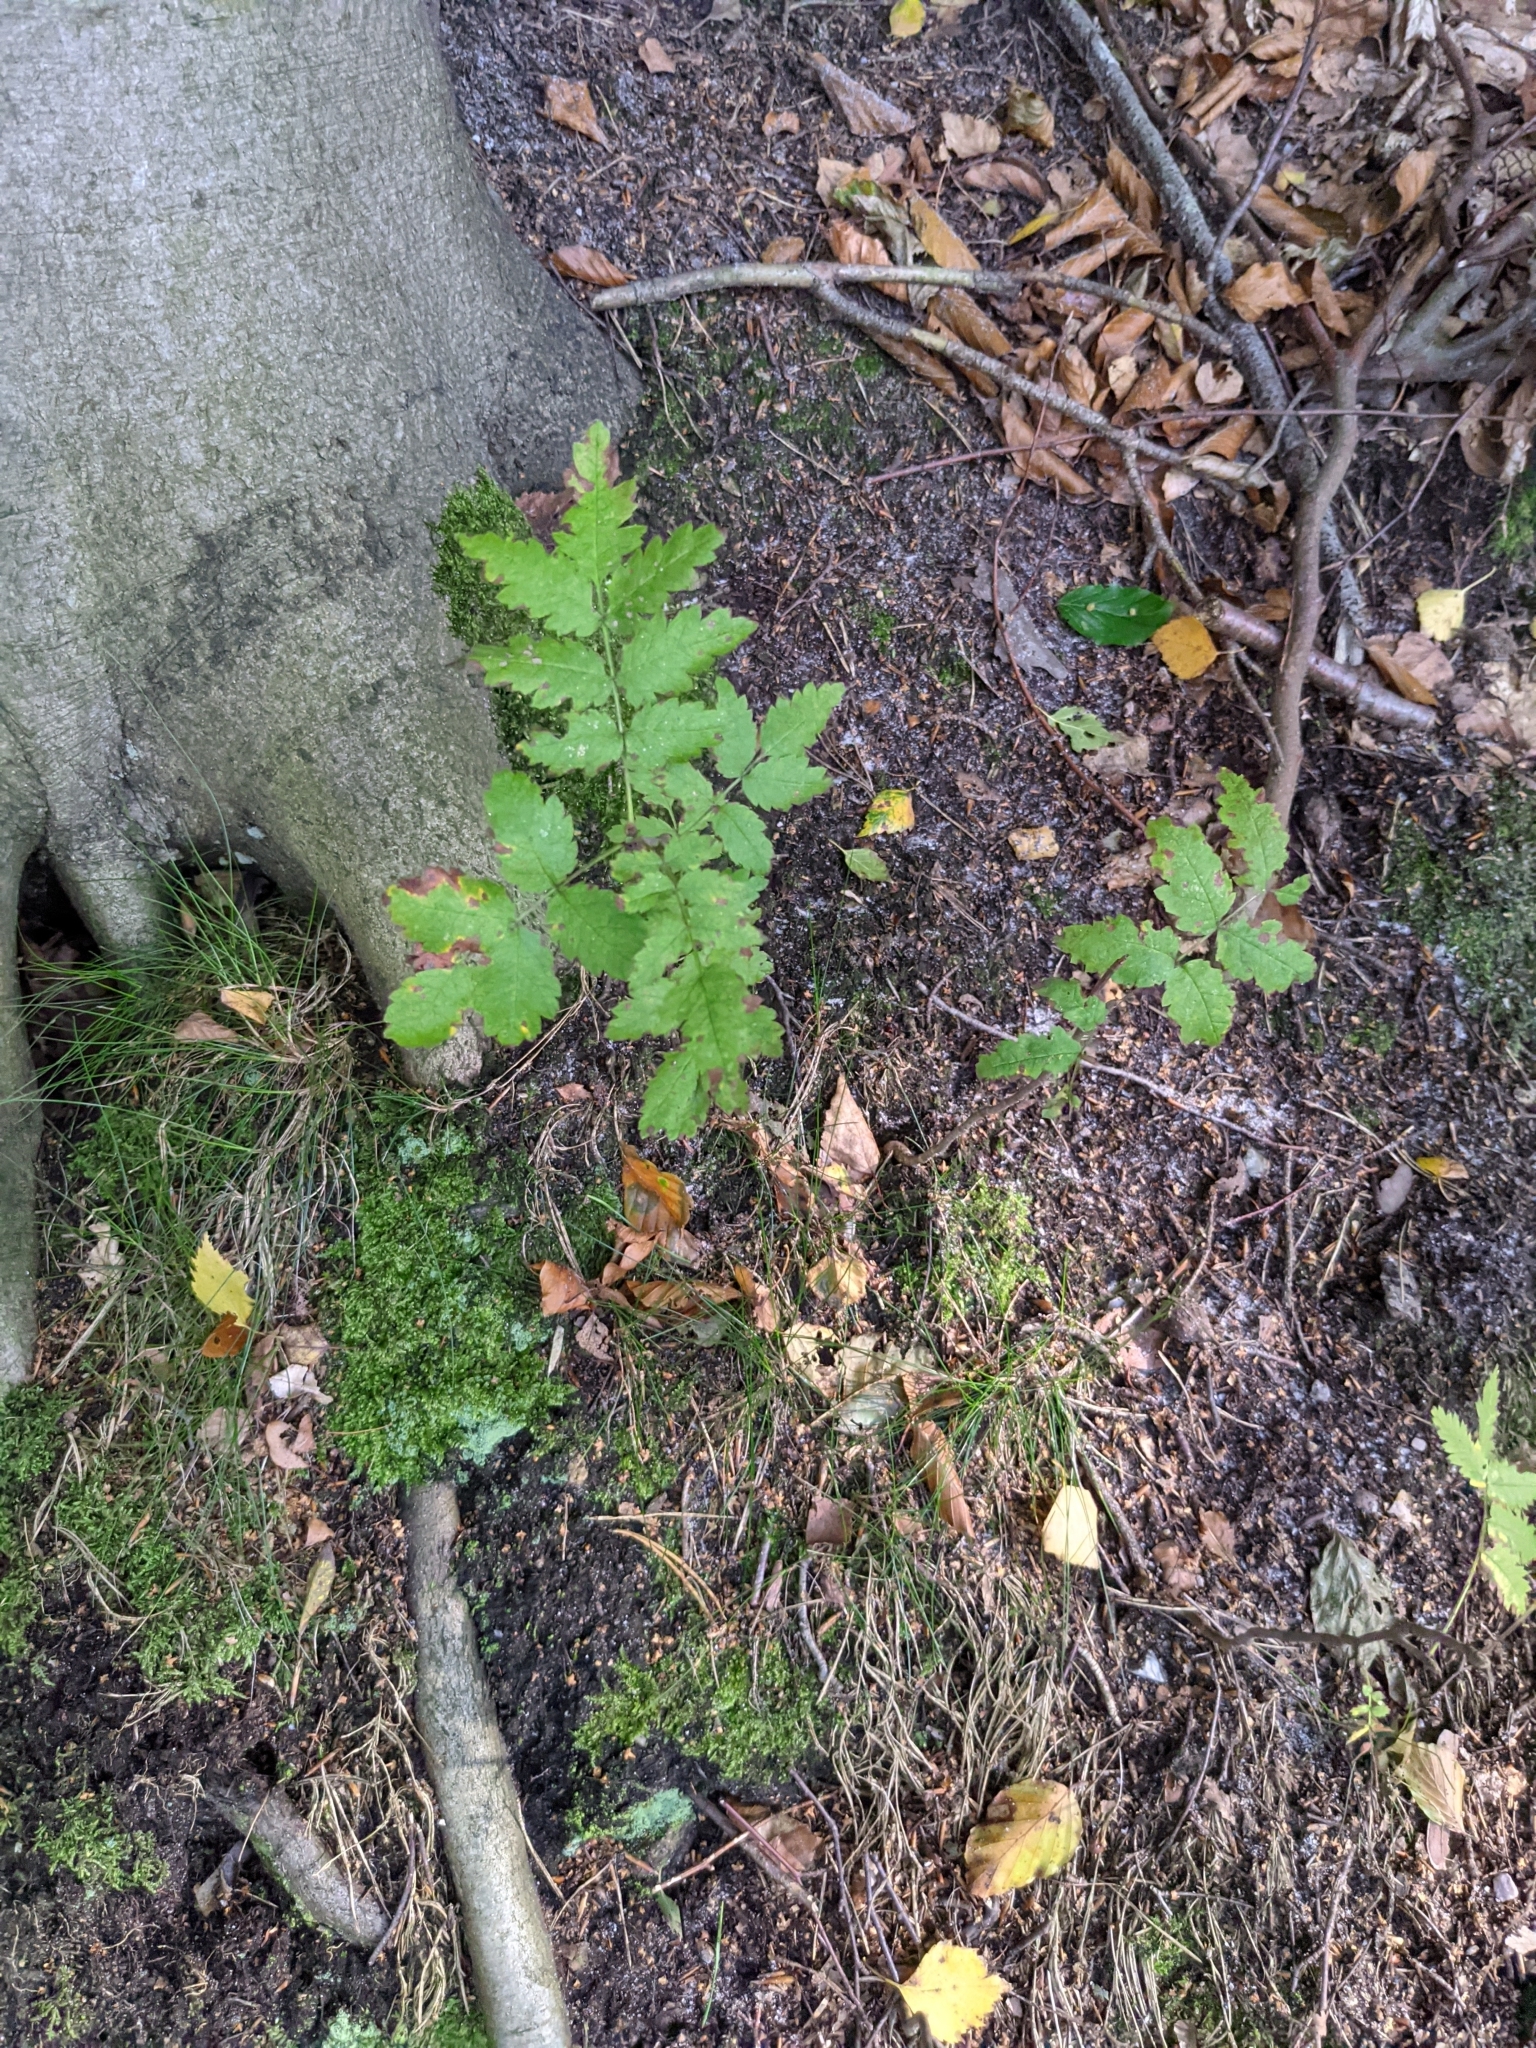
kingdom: Plantae
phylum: Tracheophyta
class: Magnoliopsida
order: Rosales
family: Rosaceae
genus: Sorbus
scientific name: Sorbus aucuparia
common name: Rowan
